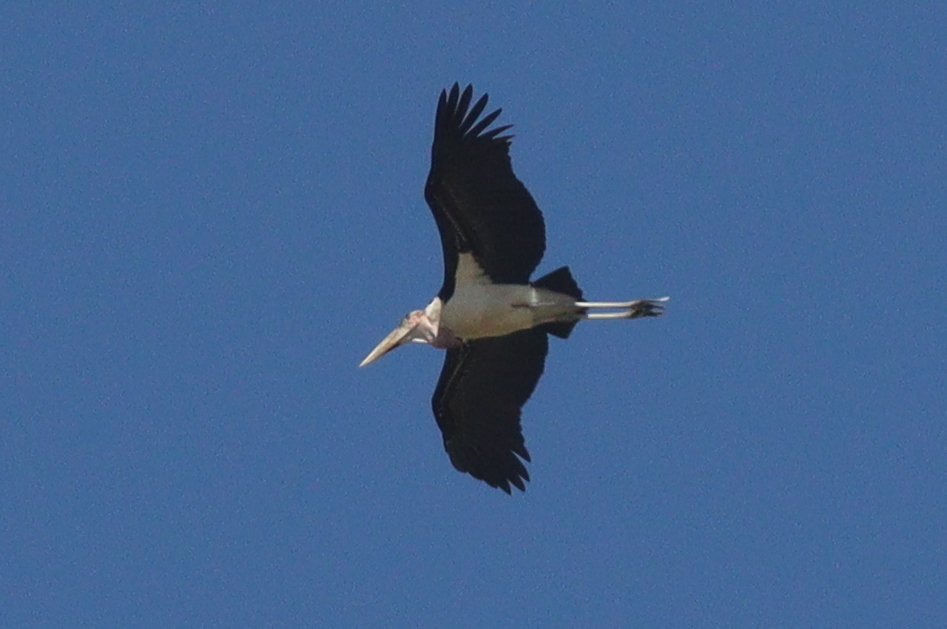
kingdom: Animalia
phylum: Chordata
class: Aves
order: Ciconiiformes
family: Ciconiidae
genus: Leptoptilos
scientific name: Leptoptilos crumenifer
